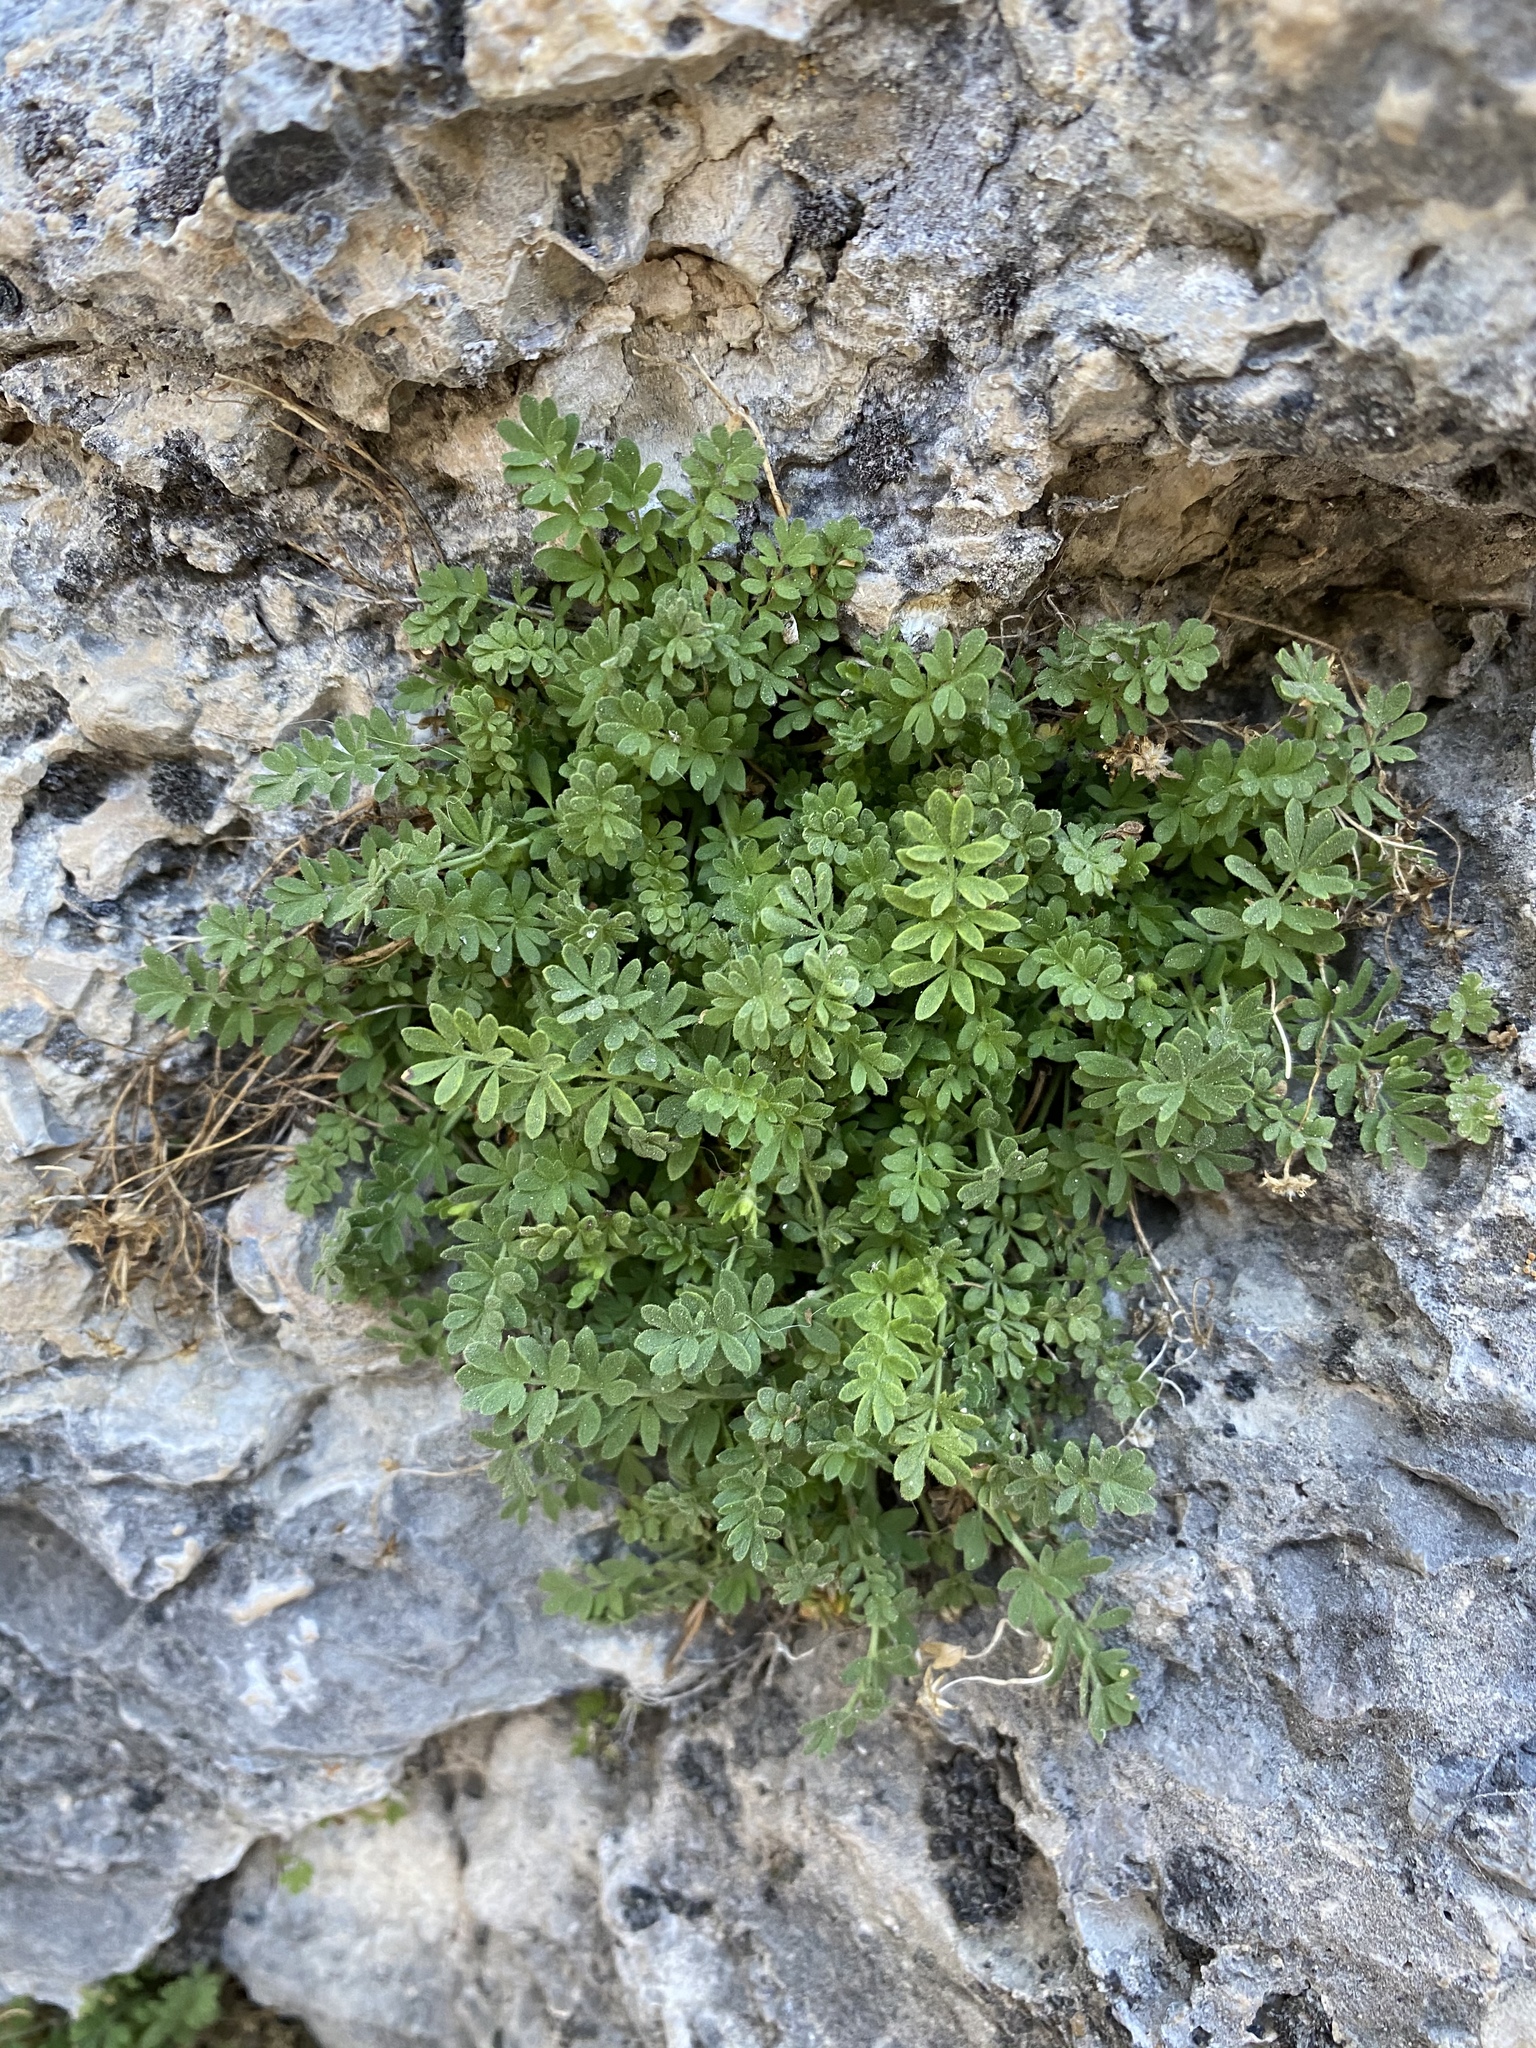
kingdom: Plantae
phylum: Tracheophyta
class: Magnoliopsida
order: Rosales
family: Rosaceae
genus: Potentilla
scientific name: Potentilla jaegeri
